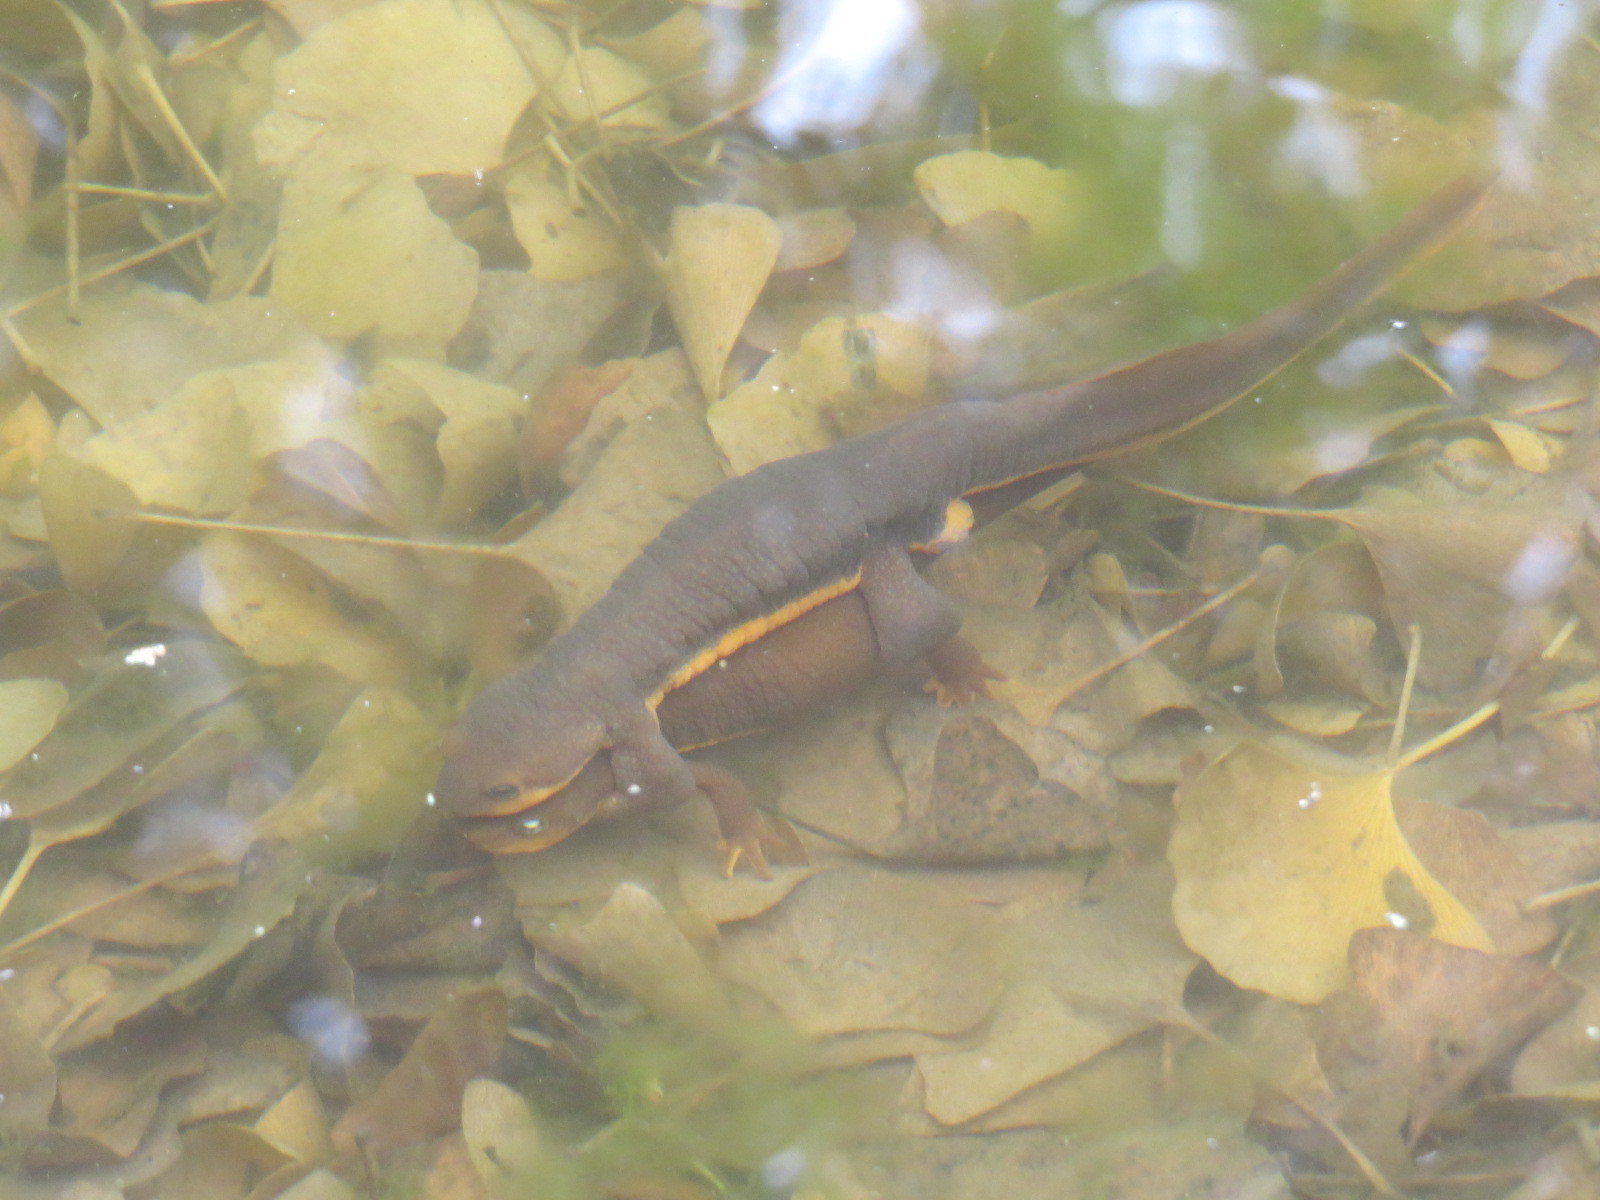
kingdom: Animalia
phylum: Chordata
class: Amphibia
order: Caudata
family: Salamandridae
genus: Taricha
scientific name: Taricha torosa
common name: California newt
